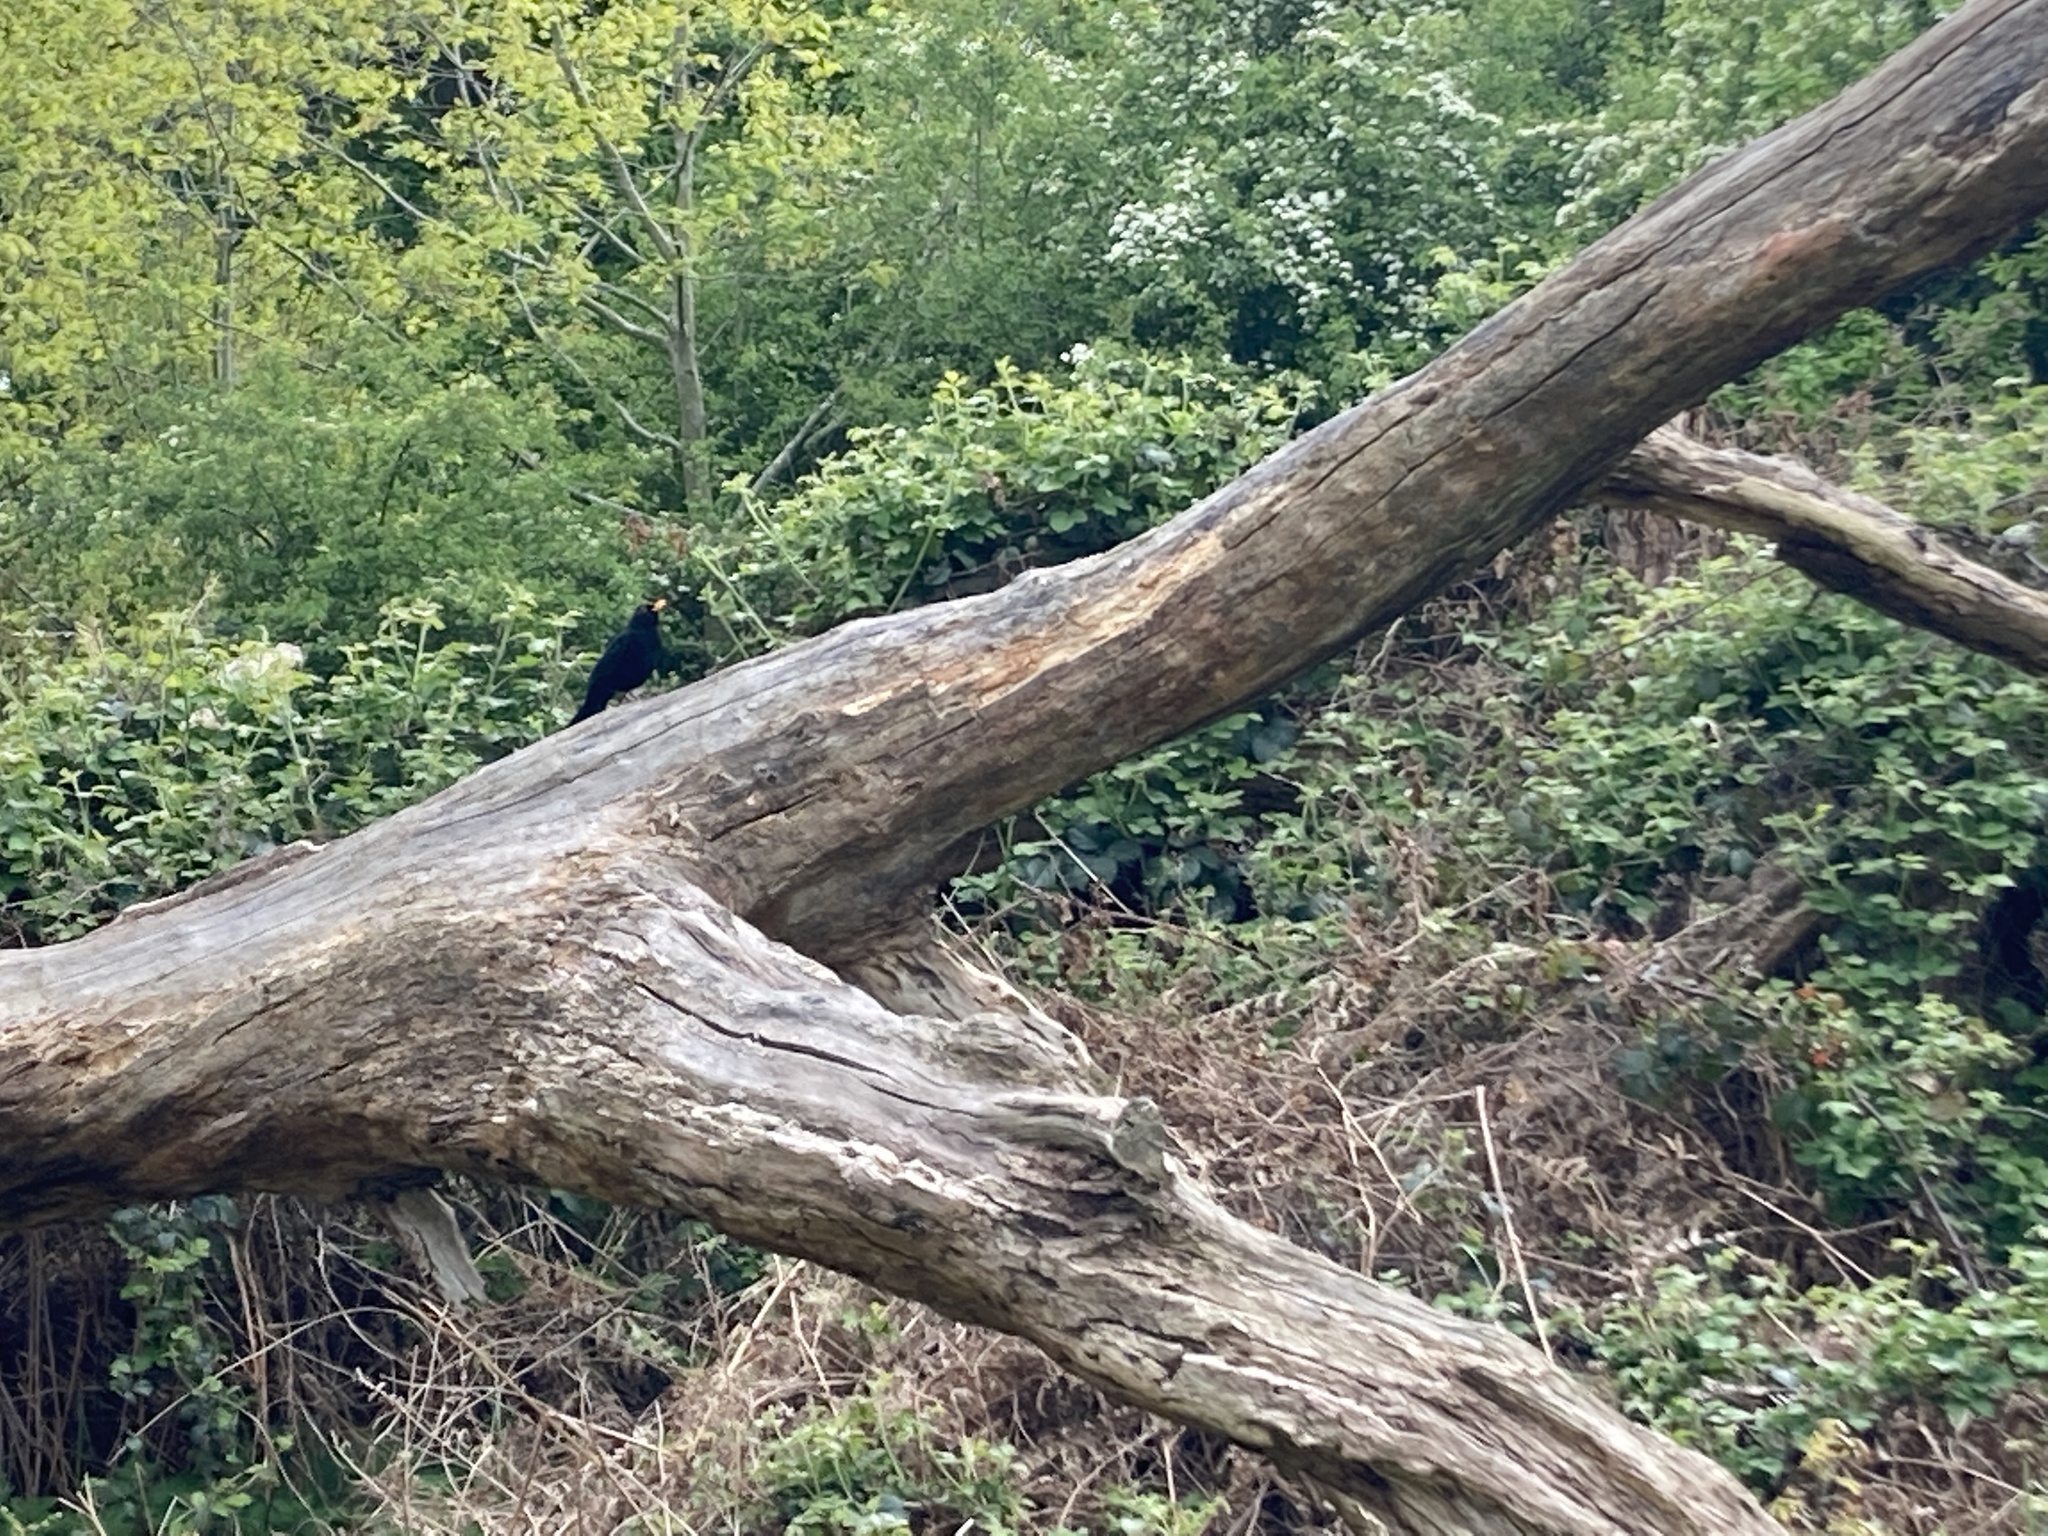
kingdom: Animalia
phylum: Chordata
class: Aves
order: Passeriformes
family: Turdidae
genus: Turdus
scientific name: Turdus merula
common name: Common blackbird
